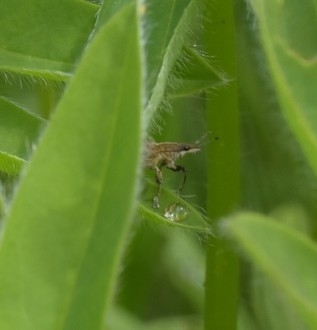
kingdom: Animalia
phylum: Arthropoda
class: Insecta
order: Coleoptera
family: Curculionidae
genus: Charagmus
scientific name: Charagmus gressorius
